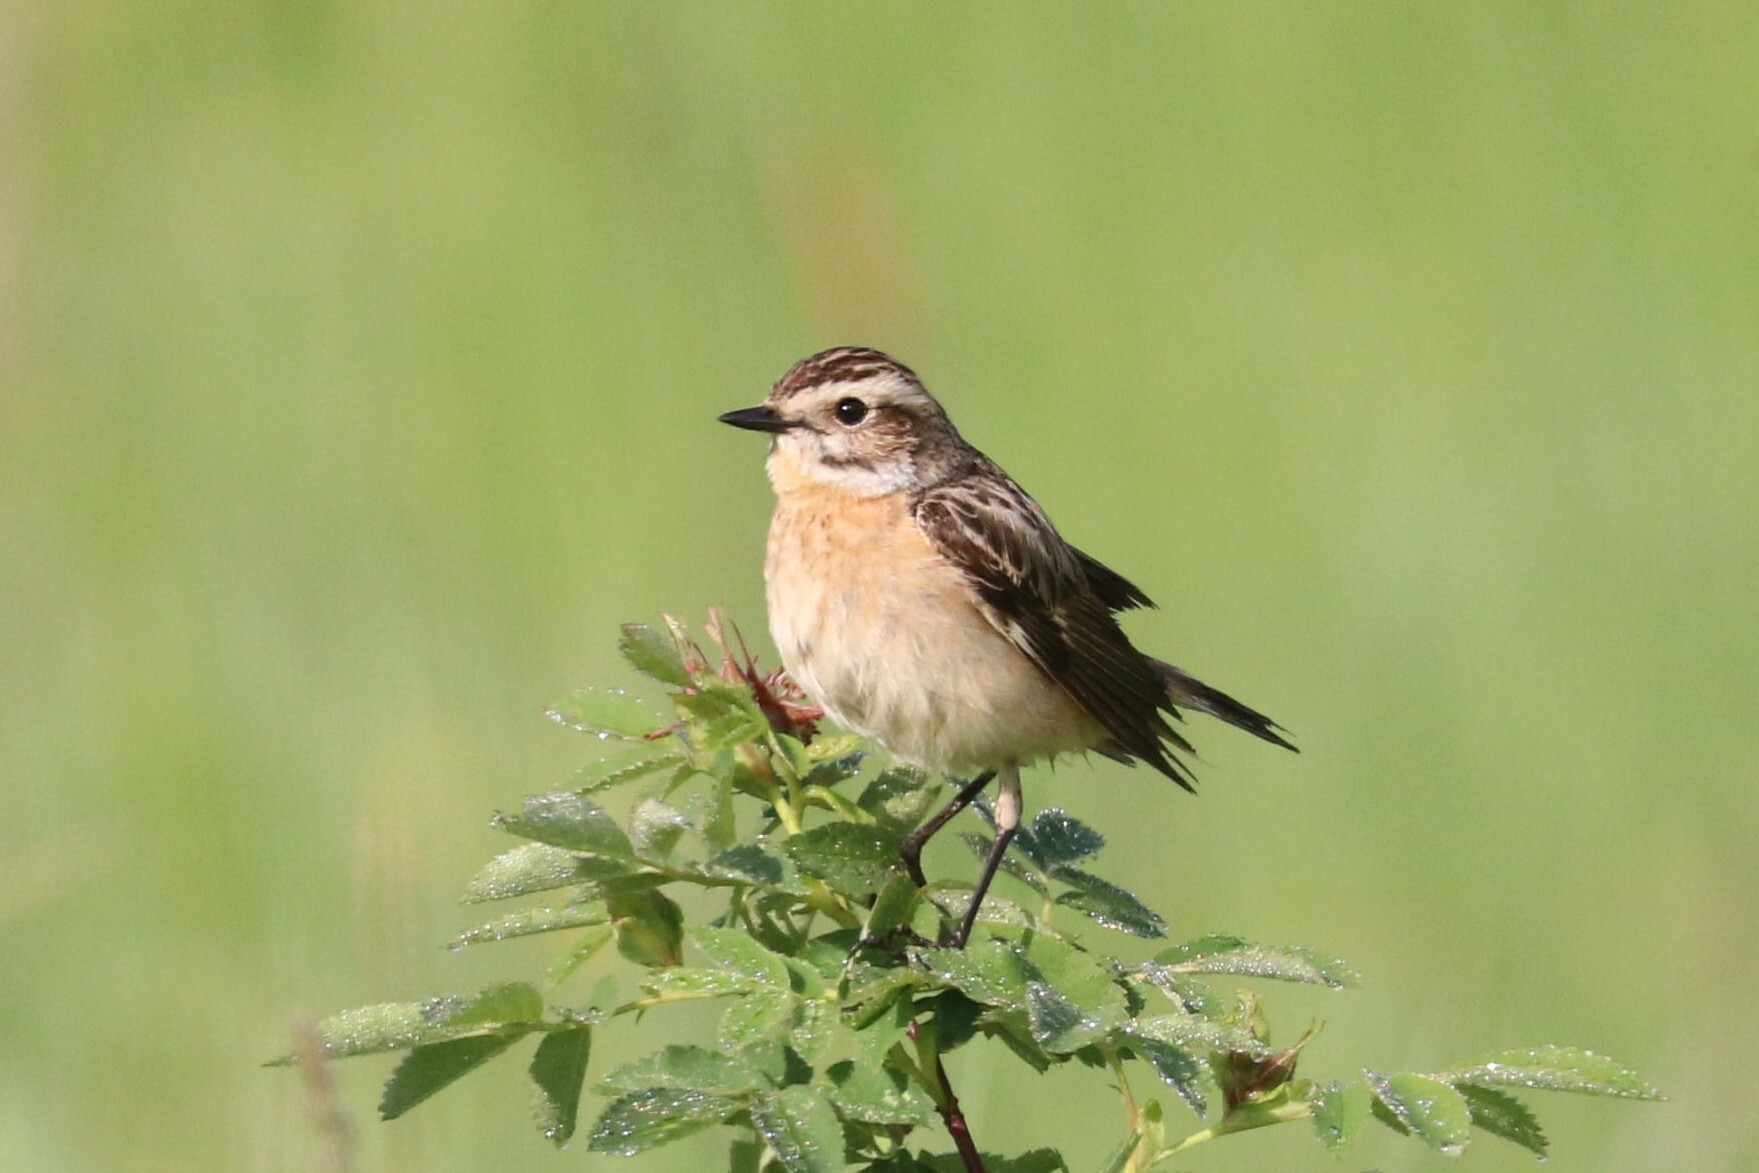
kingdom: Animalia
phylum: Chordata
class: Aves
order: Passeriformes
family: Muscicapidae
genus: Saxicola
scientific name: Saxicola rubetra
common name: Whinchat
